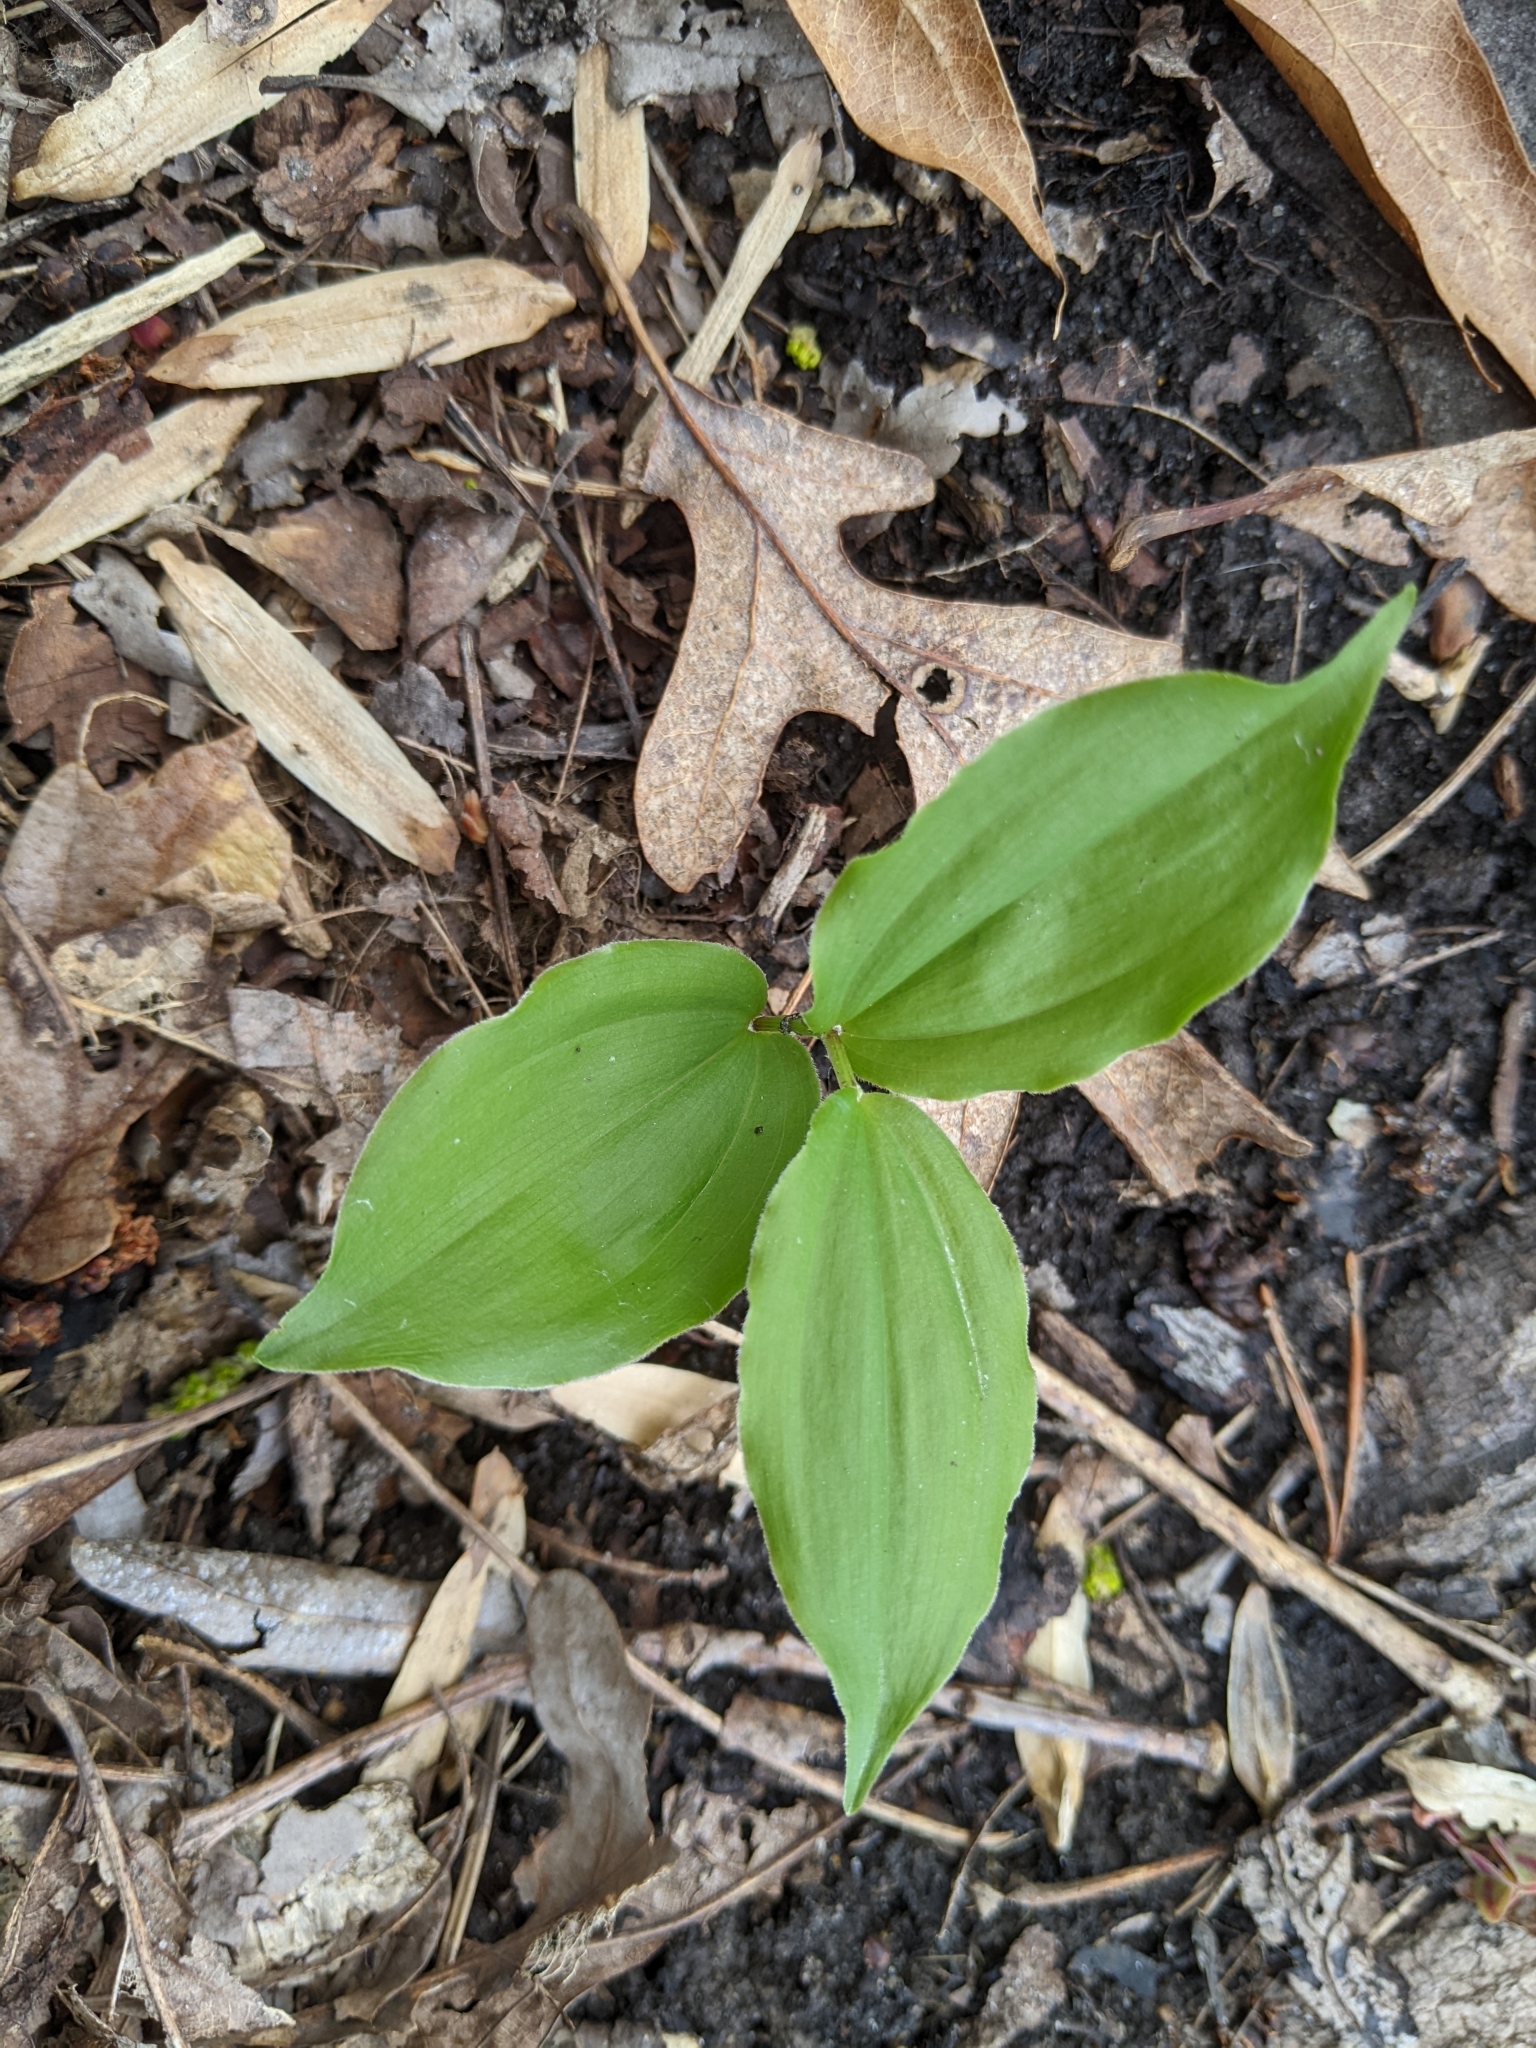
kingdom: Plantae
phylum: Tracheophyta
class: Liliopsida
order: Asparagales
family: Asparagaceae
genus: Maianthemum
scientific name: Maianthemum racemosum
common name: False spikenard
